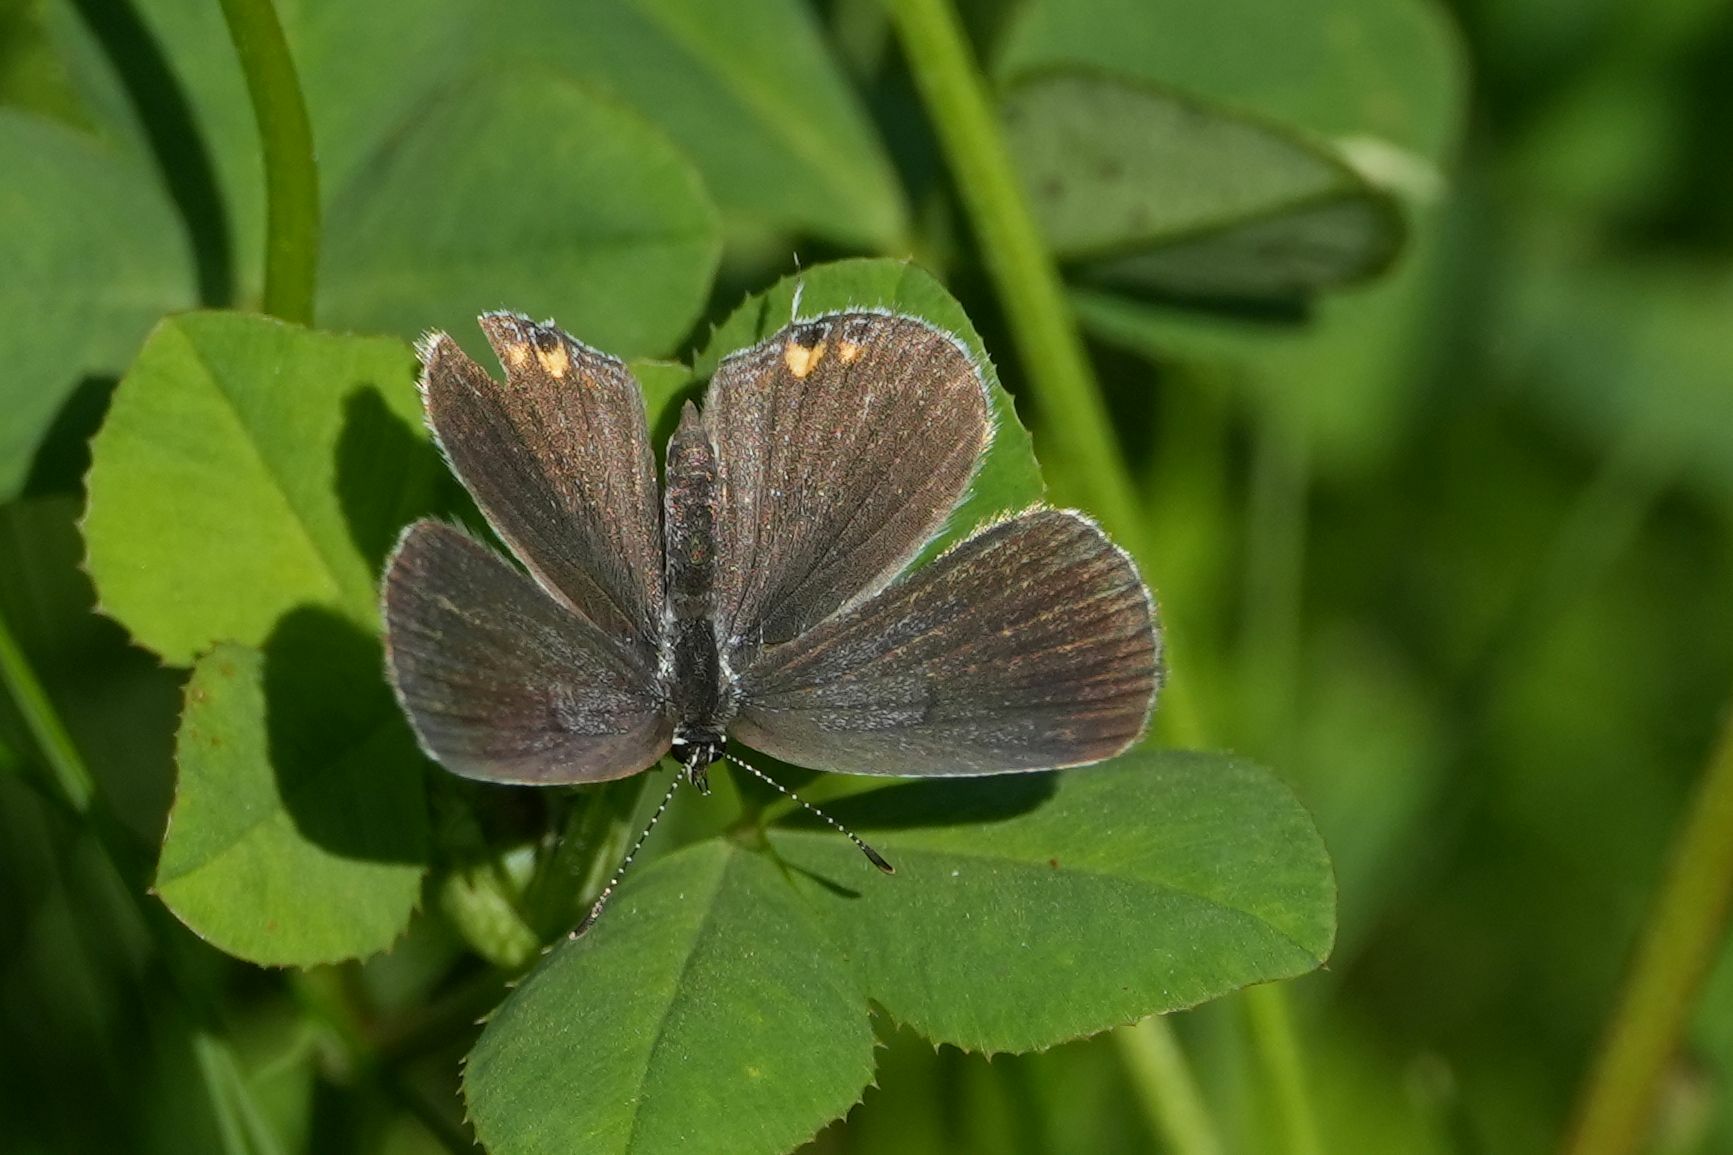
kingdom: Animalia
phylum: Arthropoda
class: Insecta
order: Lepidoptera
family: Lycaenidae
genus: Elkalyce
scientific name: Elkalyce comyntas
